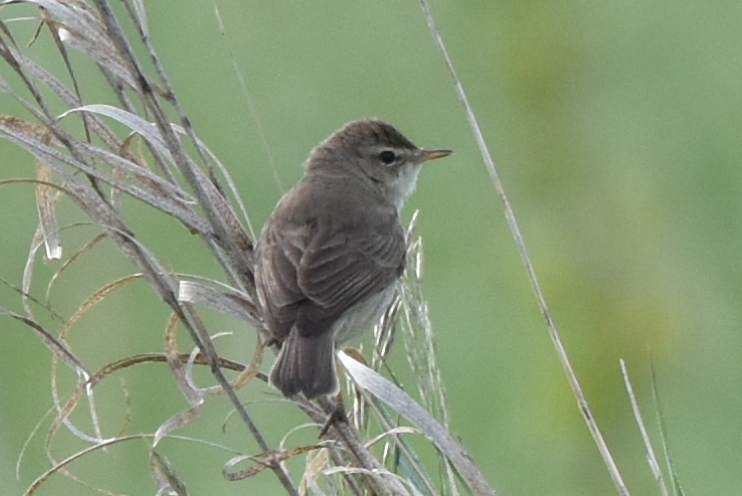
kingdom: Animalia
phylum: Chordata
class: Aves
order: Passeriformes
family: Acrocephalidae
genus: Iduna
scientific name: Iduna caligata
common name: Booted warbler
